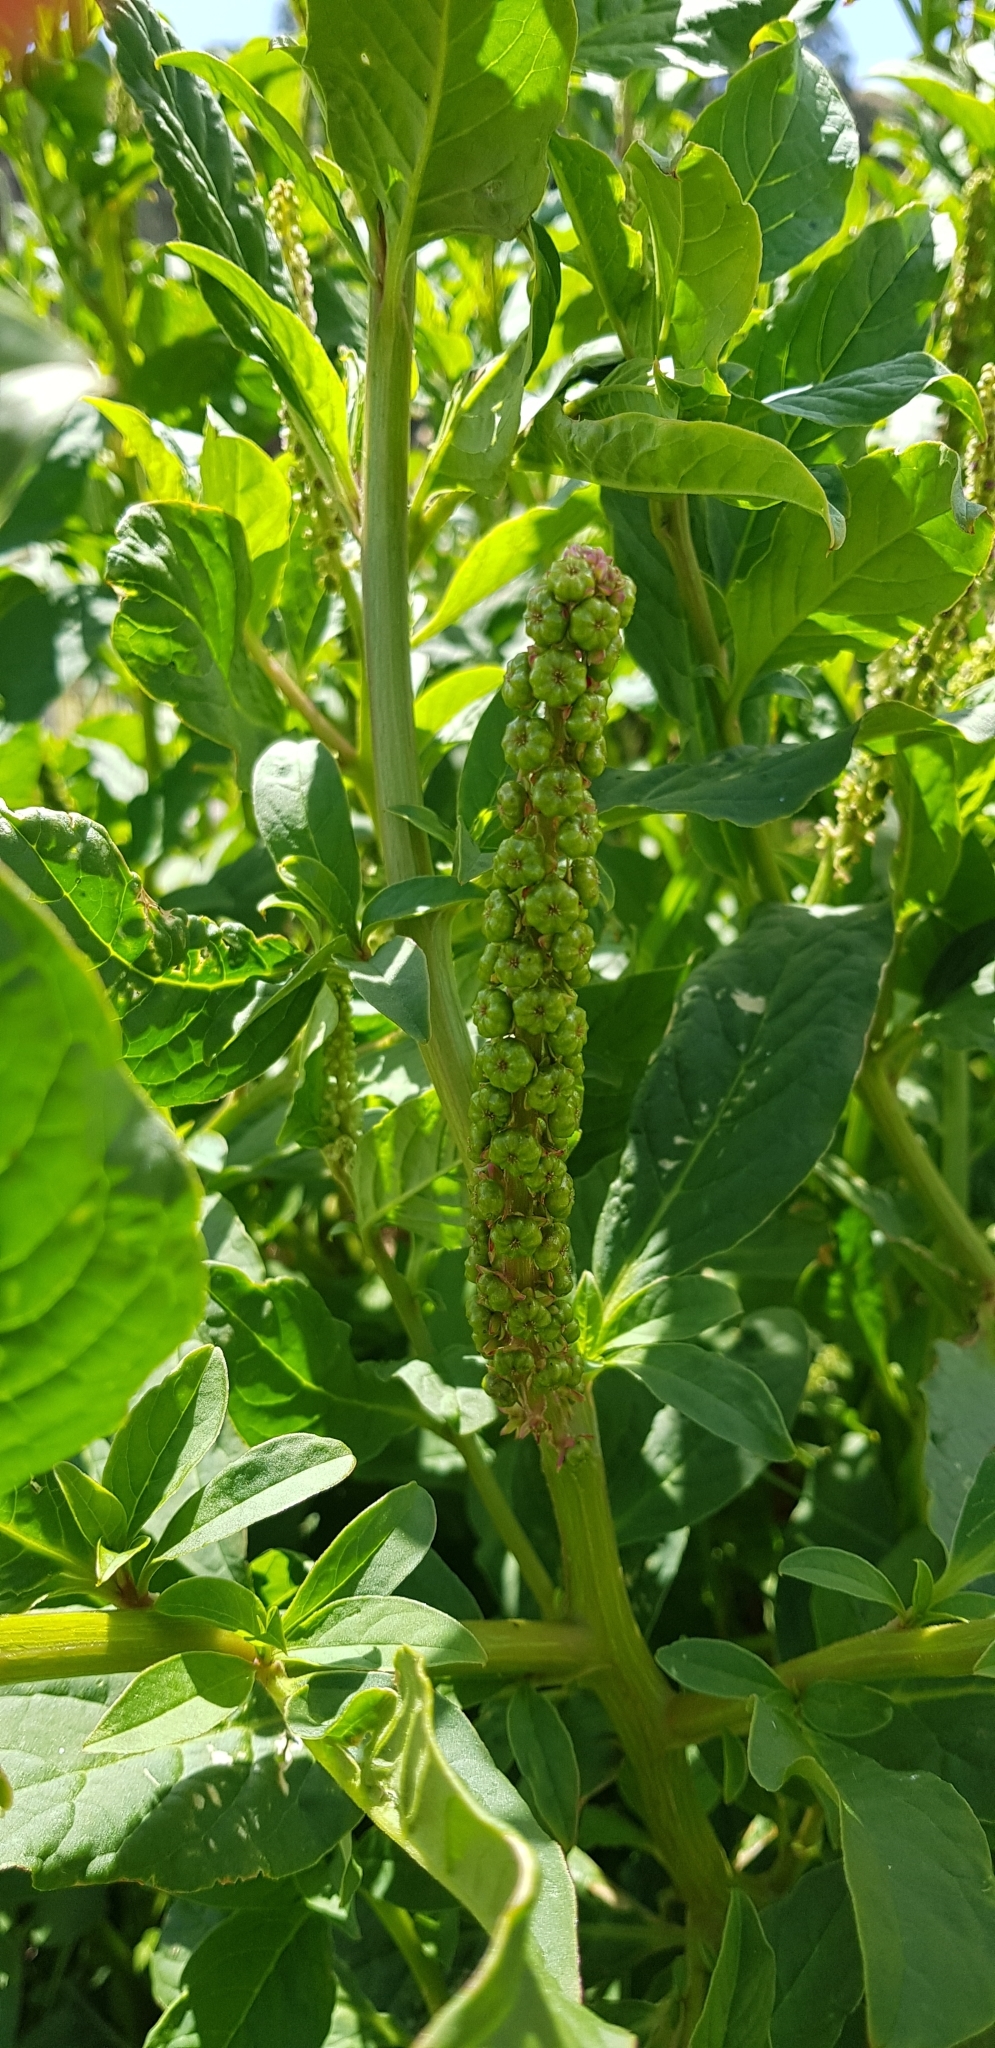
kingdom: Plantae
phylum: Tracheophyta
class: Magnoliopsida
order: Caryophyllales
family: Phytolaccaceae
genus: Phytolacca
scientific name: Phytolacca icosandra
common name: Button pokeweed
